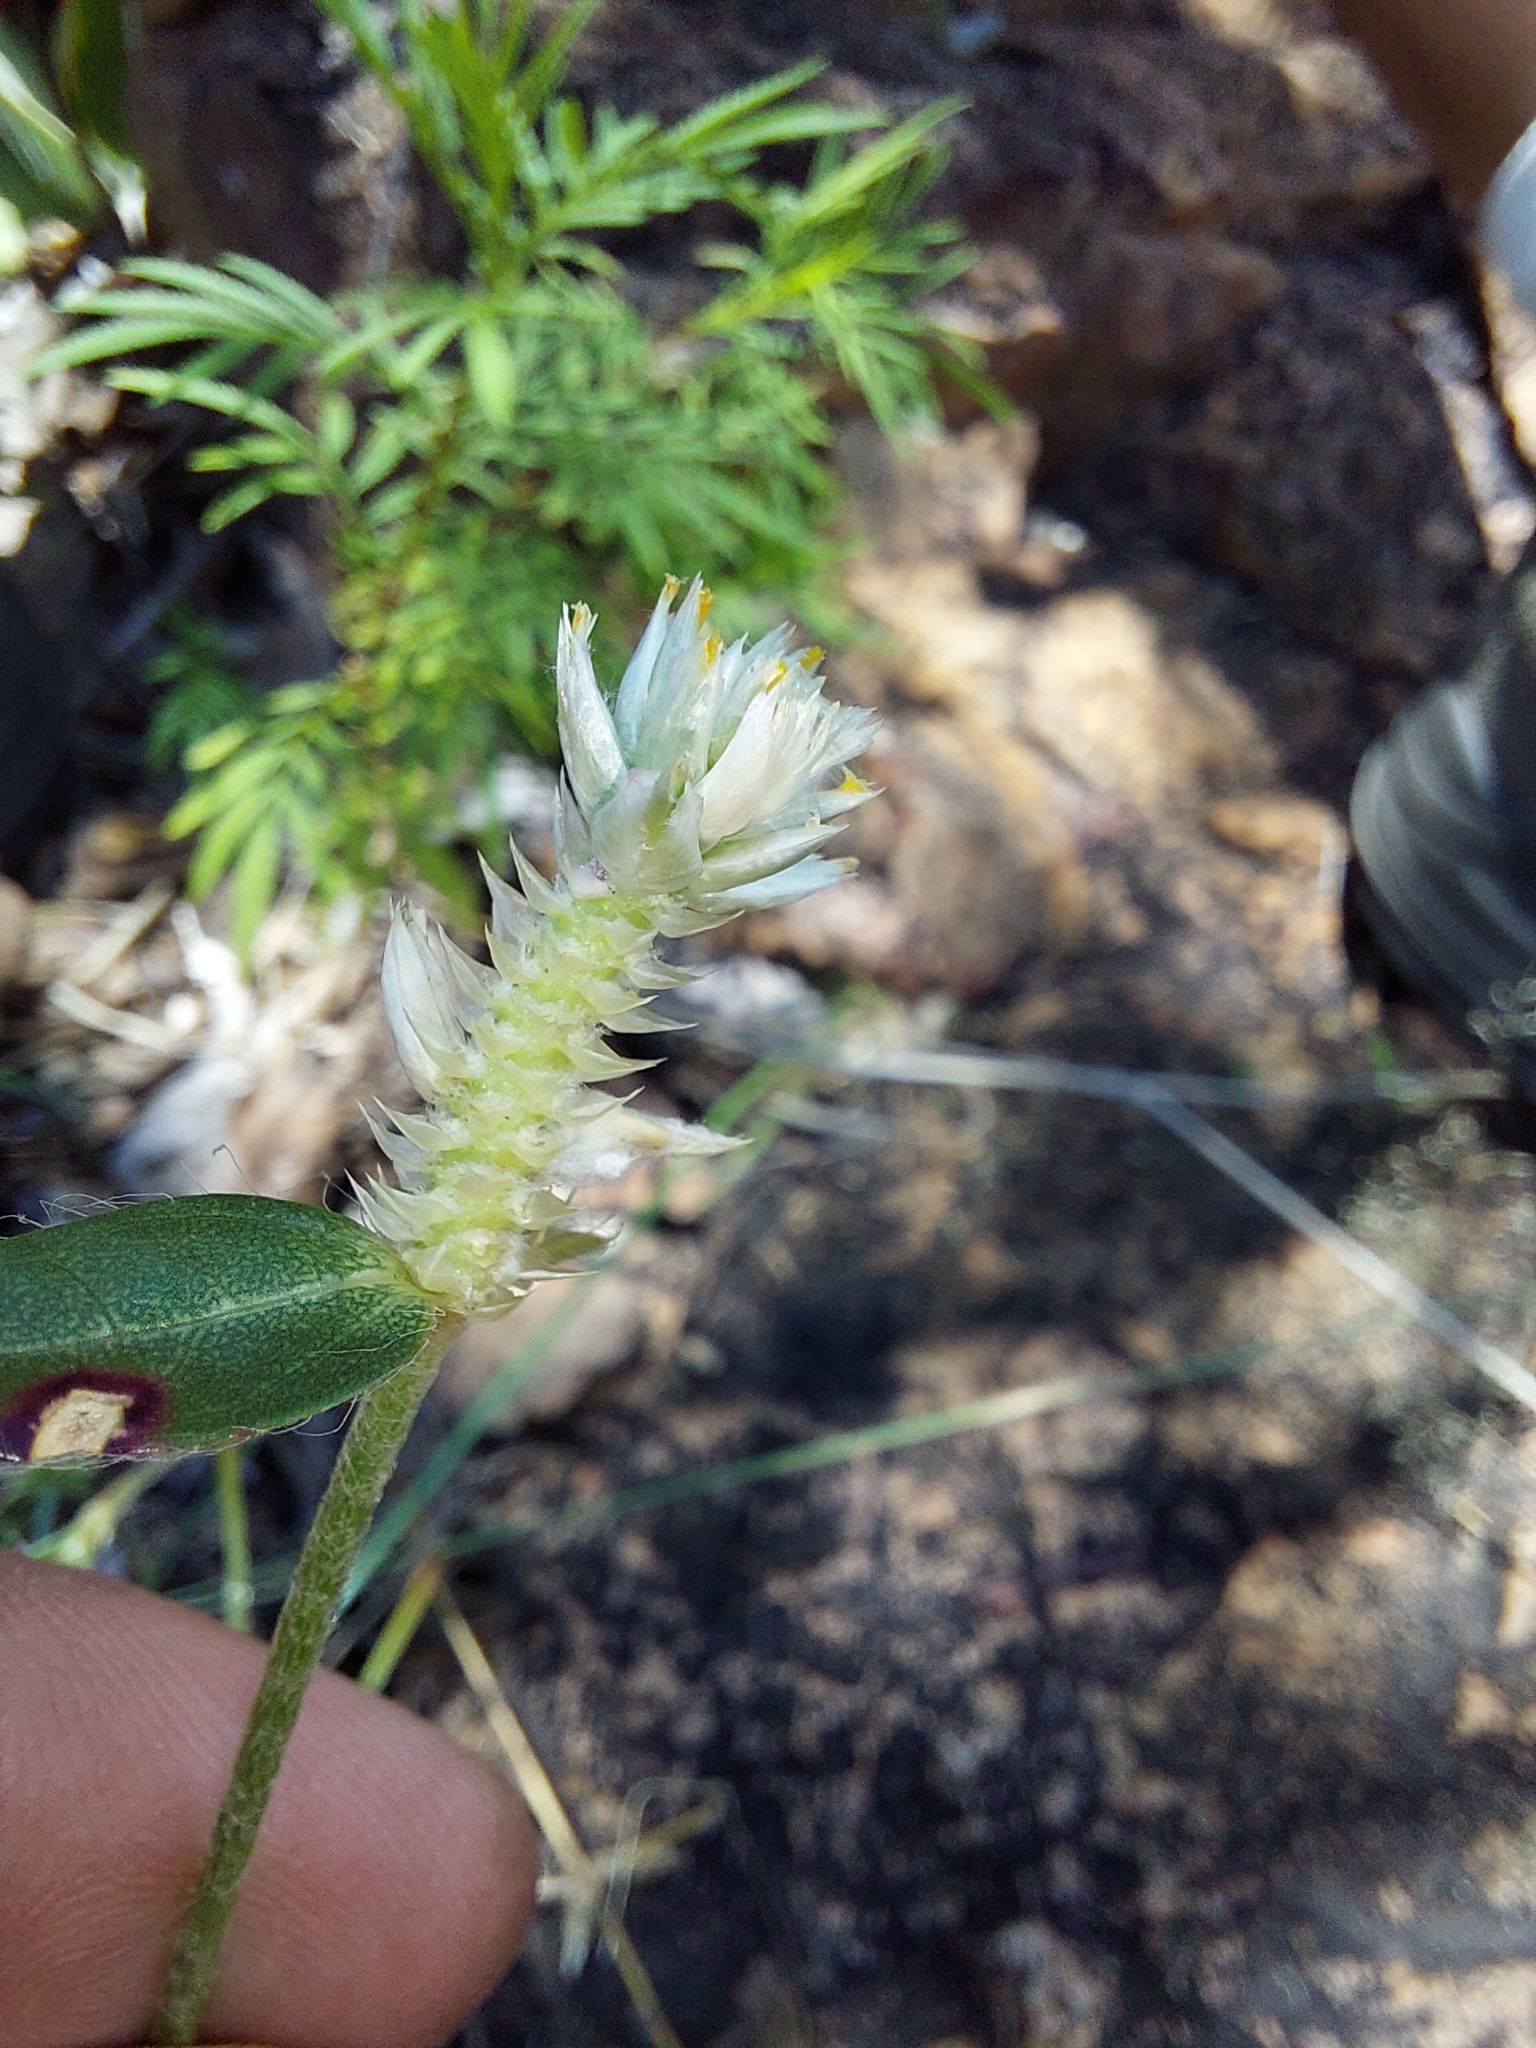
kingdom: Plantae
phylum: Tracheophyta
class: Magnoliopsida
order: Caryophyllales
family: Amaranthaceae
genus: Gomphrena
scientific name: Gomphrena celosioides
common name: Gomphrena-weed
